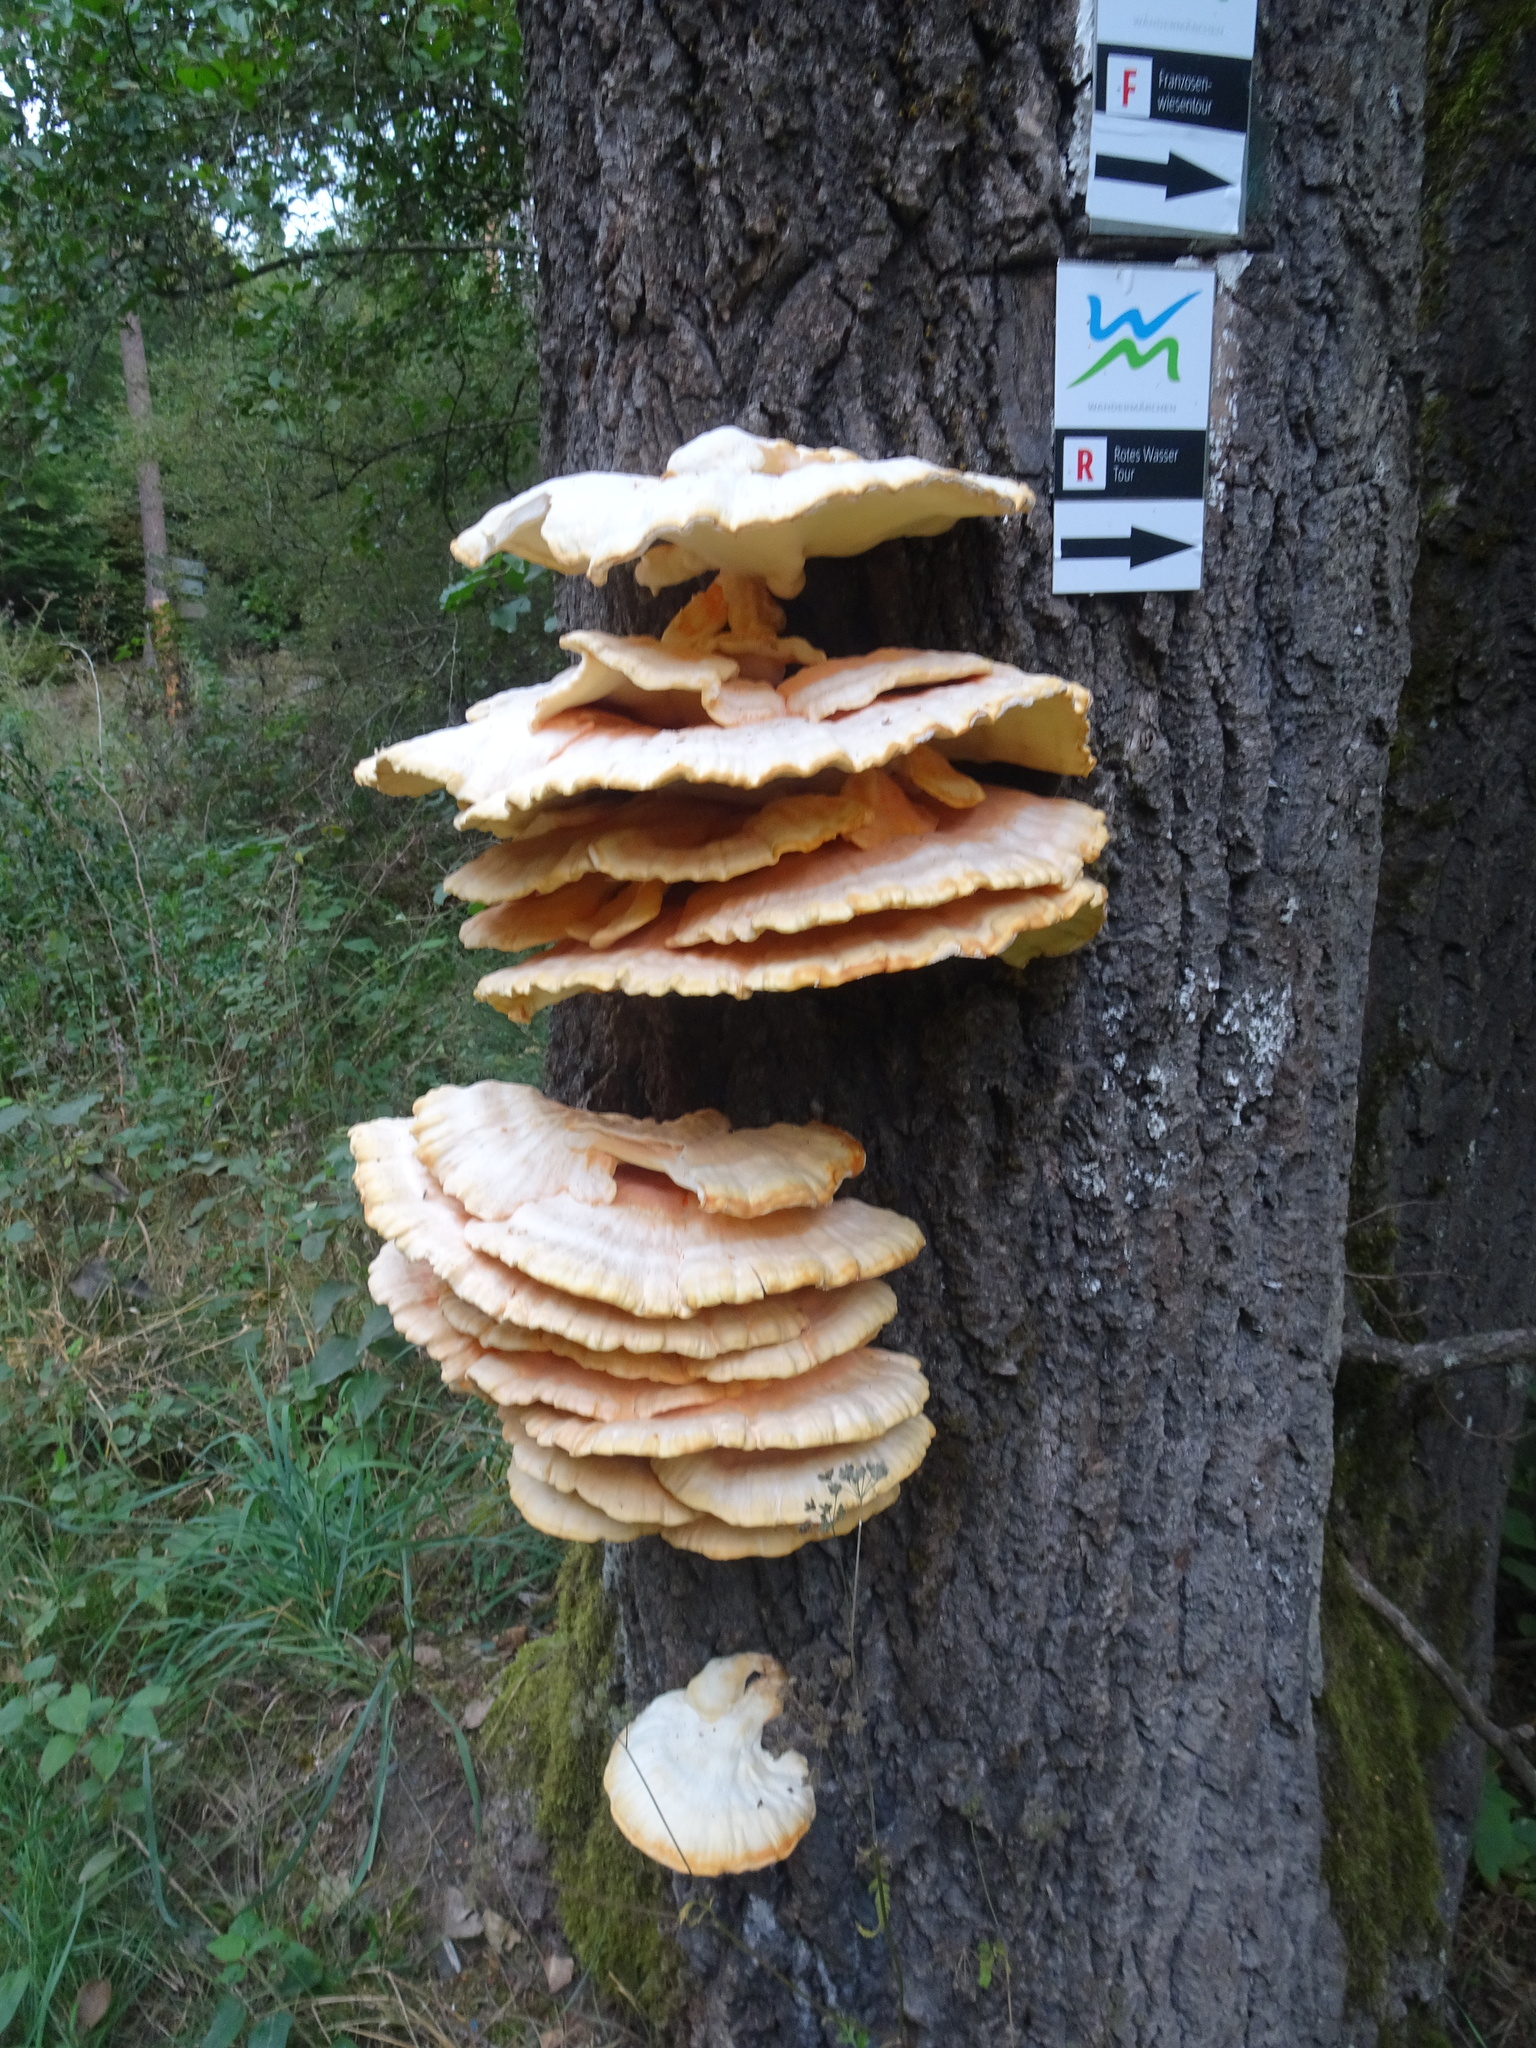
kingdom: Fungi
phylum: Basidiomycota
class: Agaricomycetes
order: Polyporales
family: Laetiporaceae
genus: Laetiporus
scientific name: Laetiporus sulphureus
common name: Chicken of the woods
